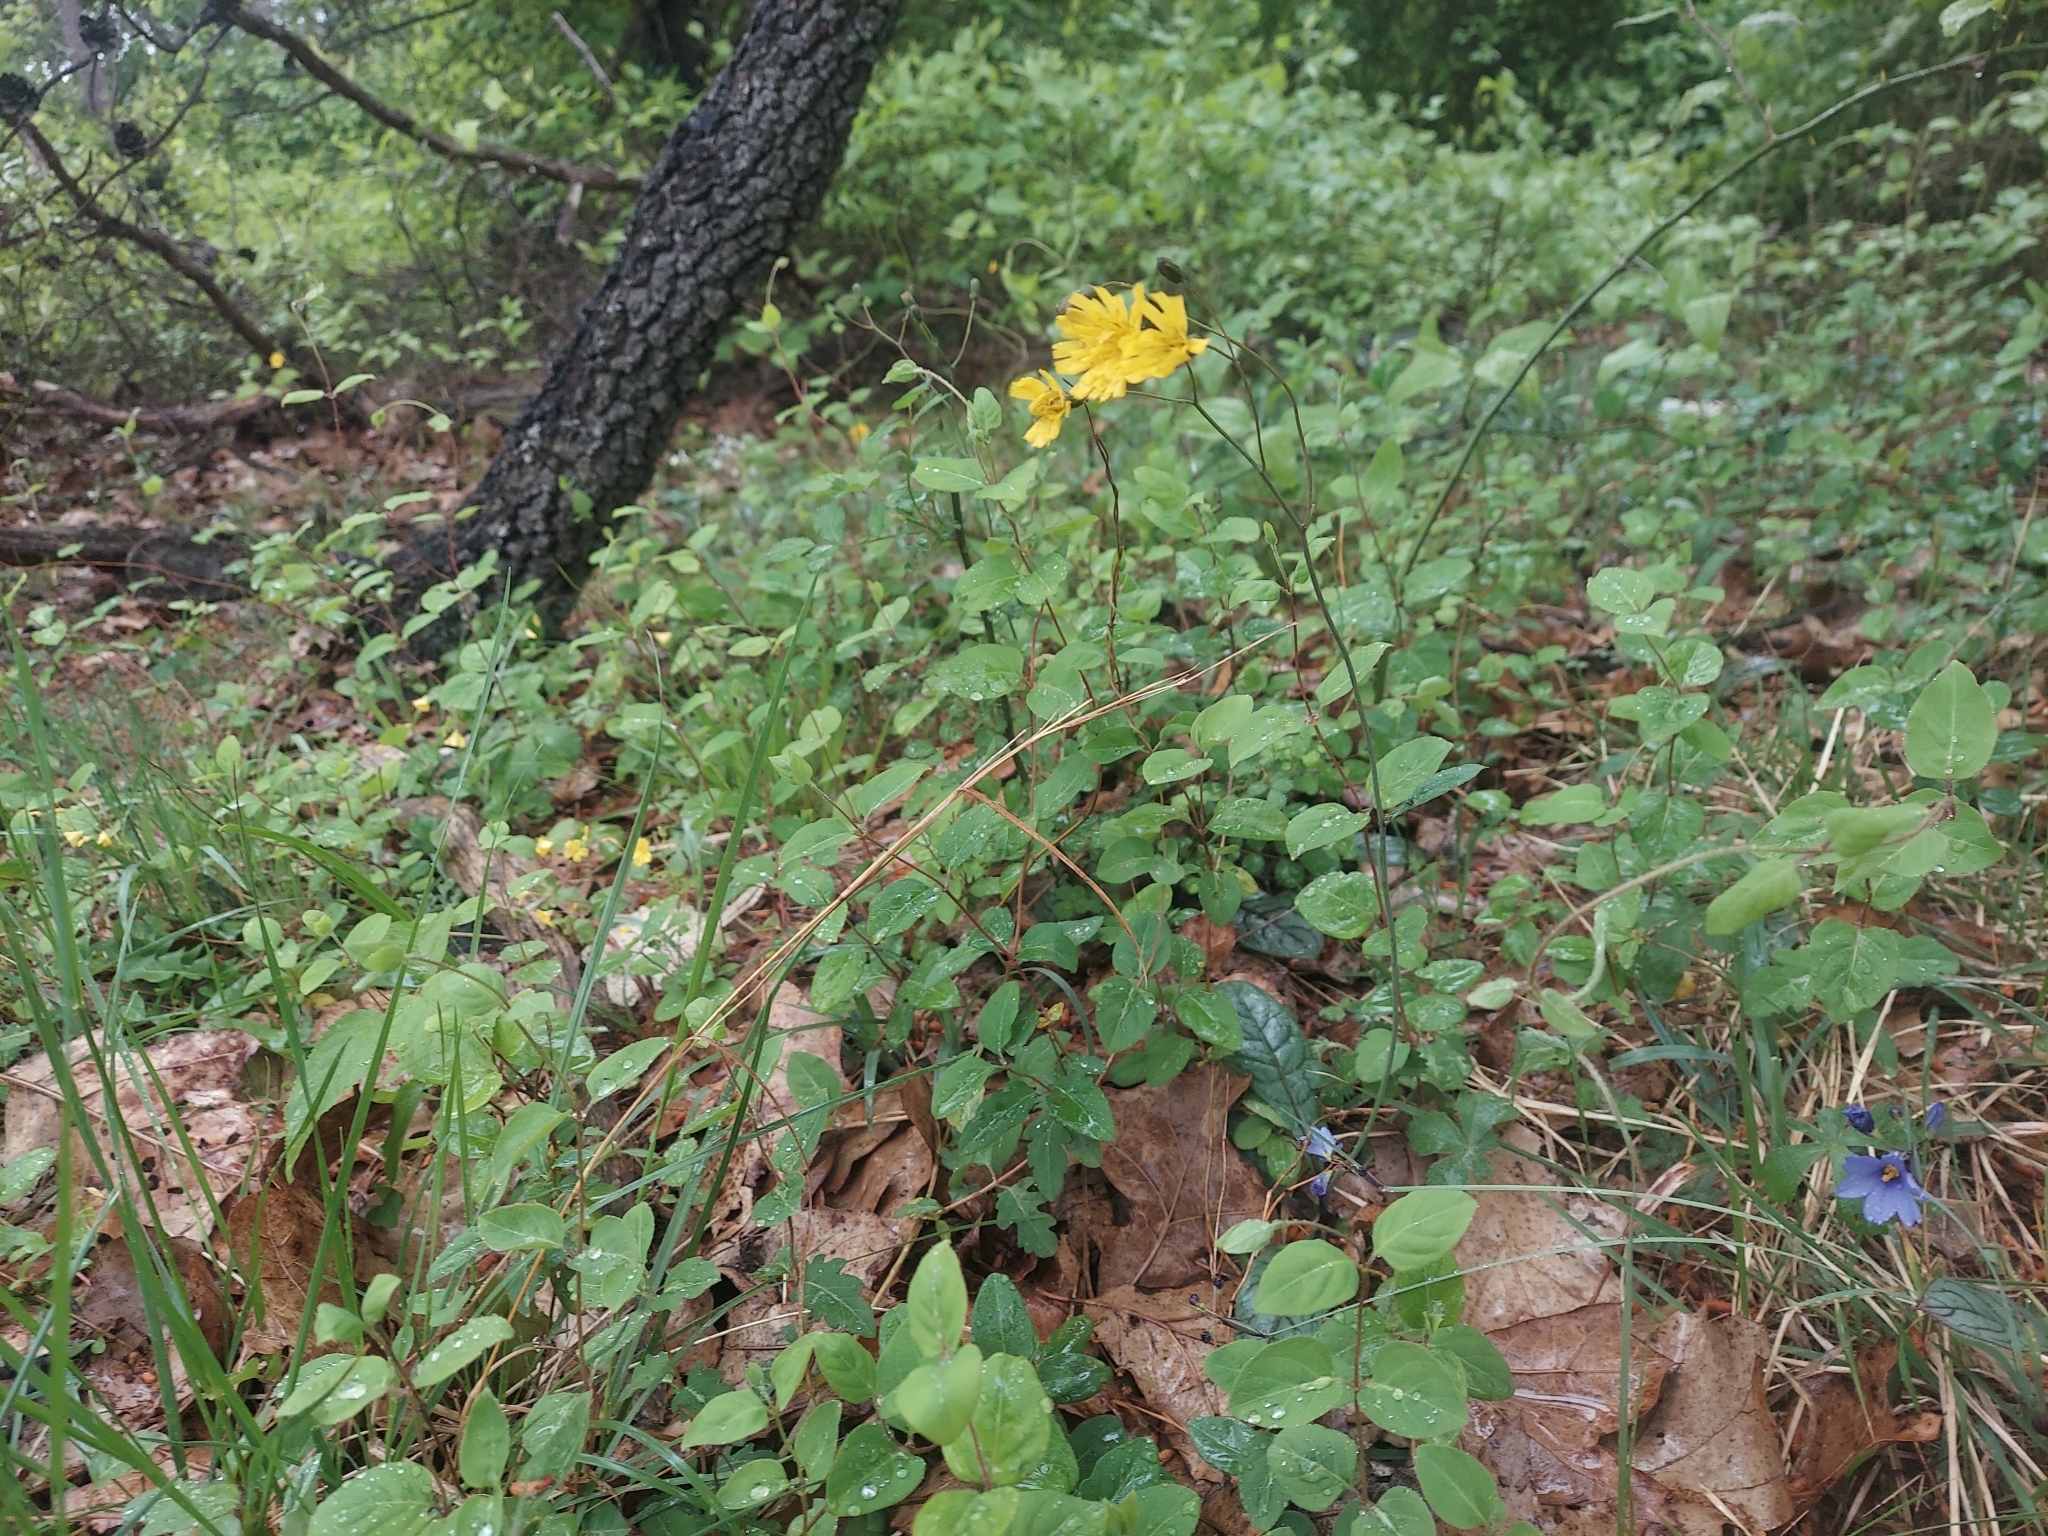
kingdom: Plantae
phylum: Tracheophyta
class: Magnoliopsida
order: Asterales
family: Asteraceae
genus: Hieracium
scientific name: Hieracium venosum
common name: Rattlesnake hawkweed
